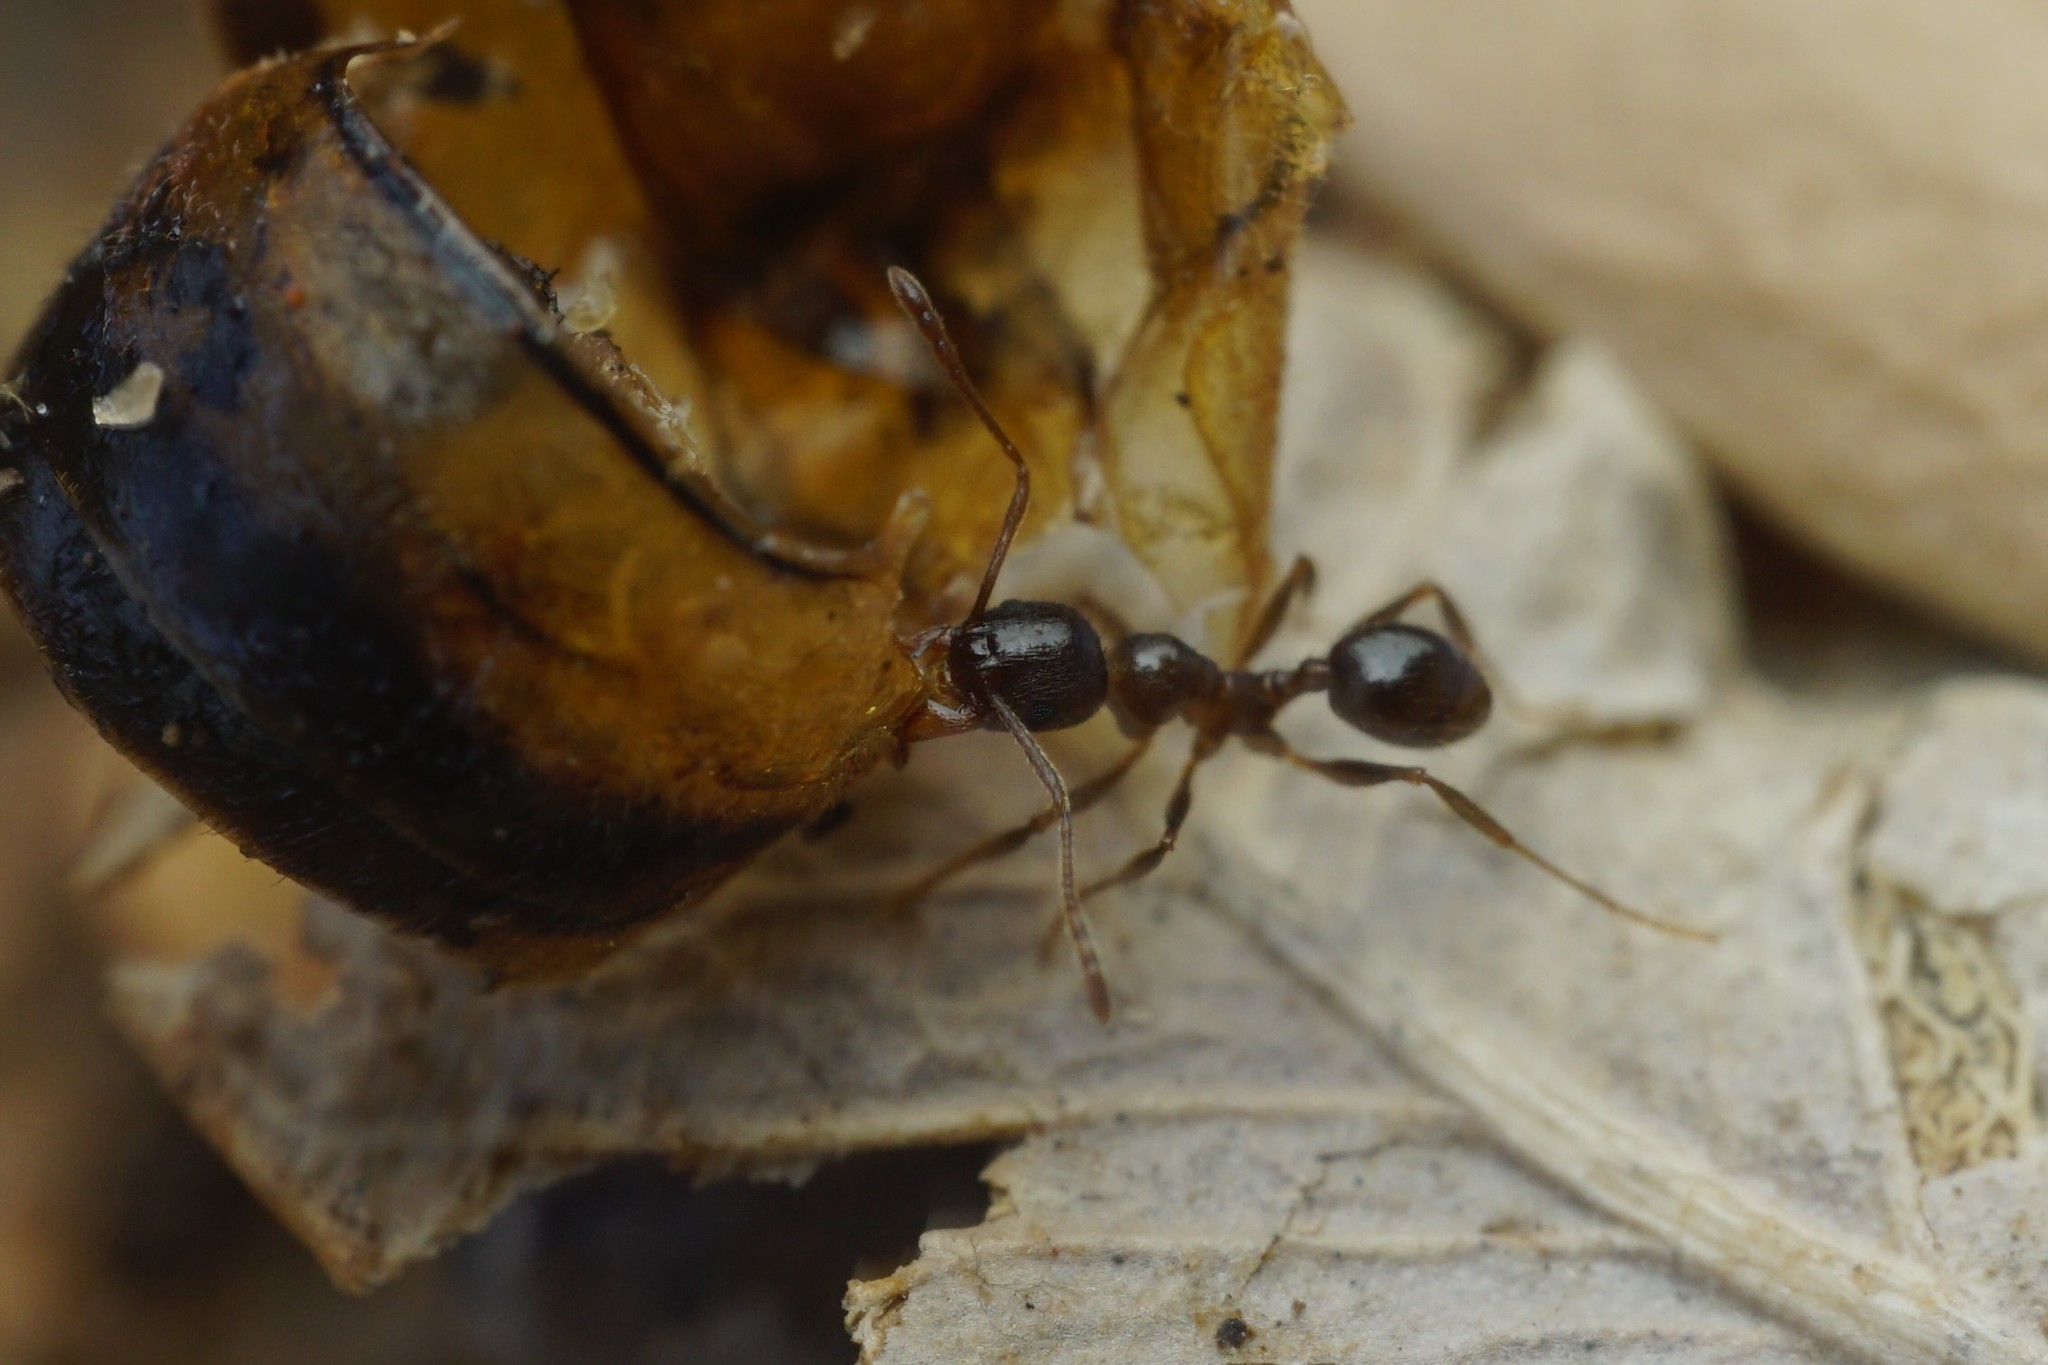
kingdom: Animalia
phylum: Arthropoda
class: Insecta
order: Hymenoptera
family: Formicidae
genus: Pheidole
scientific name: Pheidole tetra
